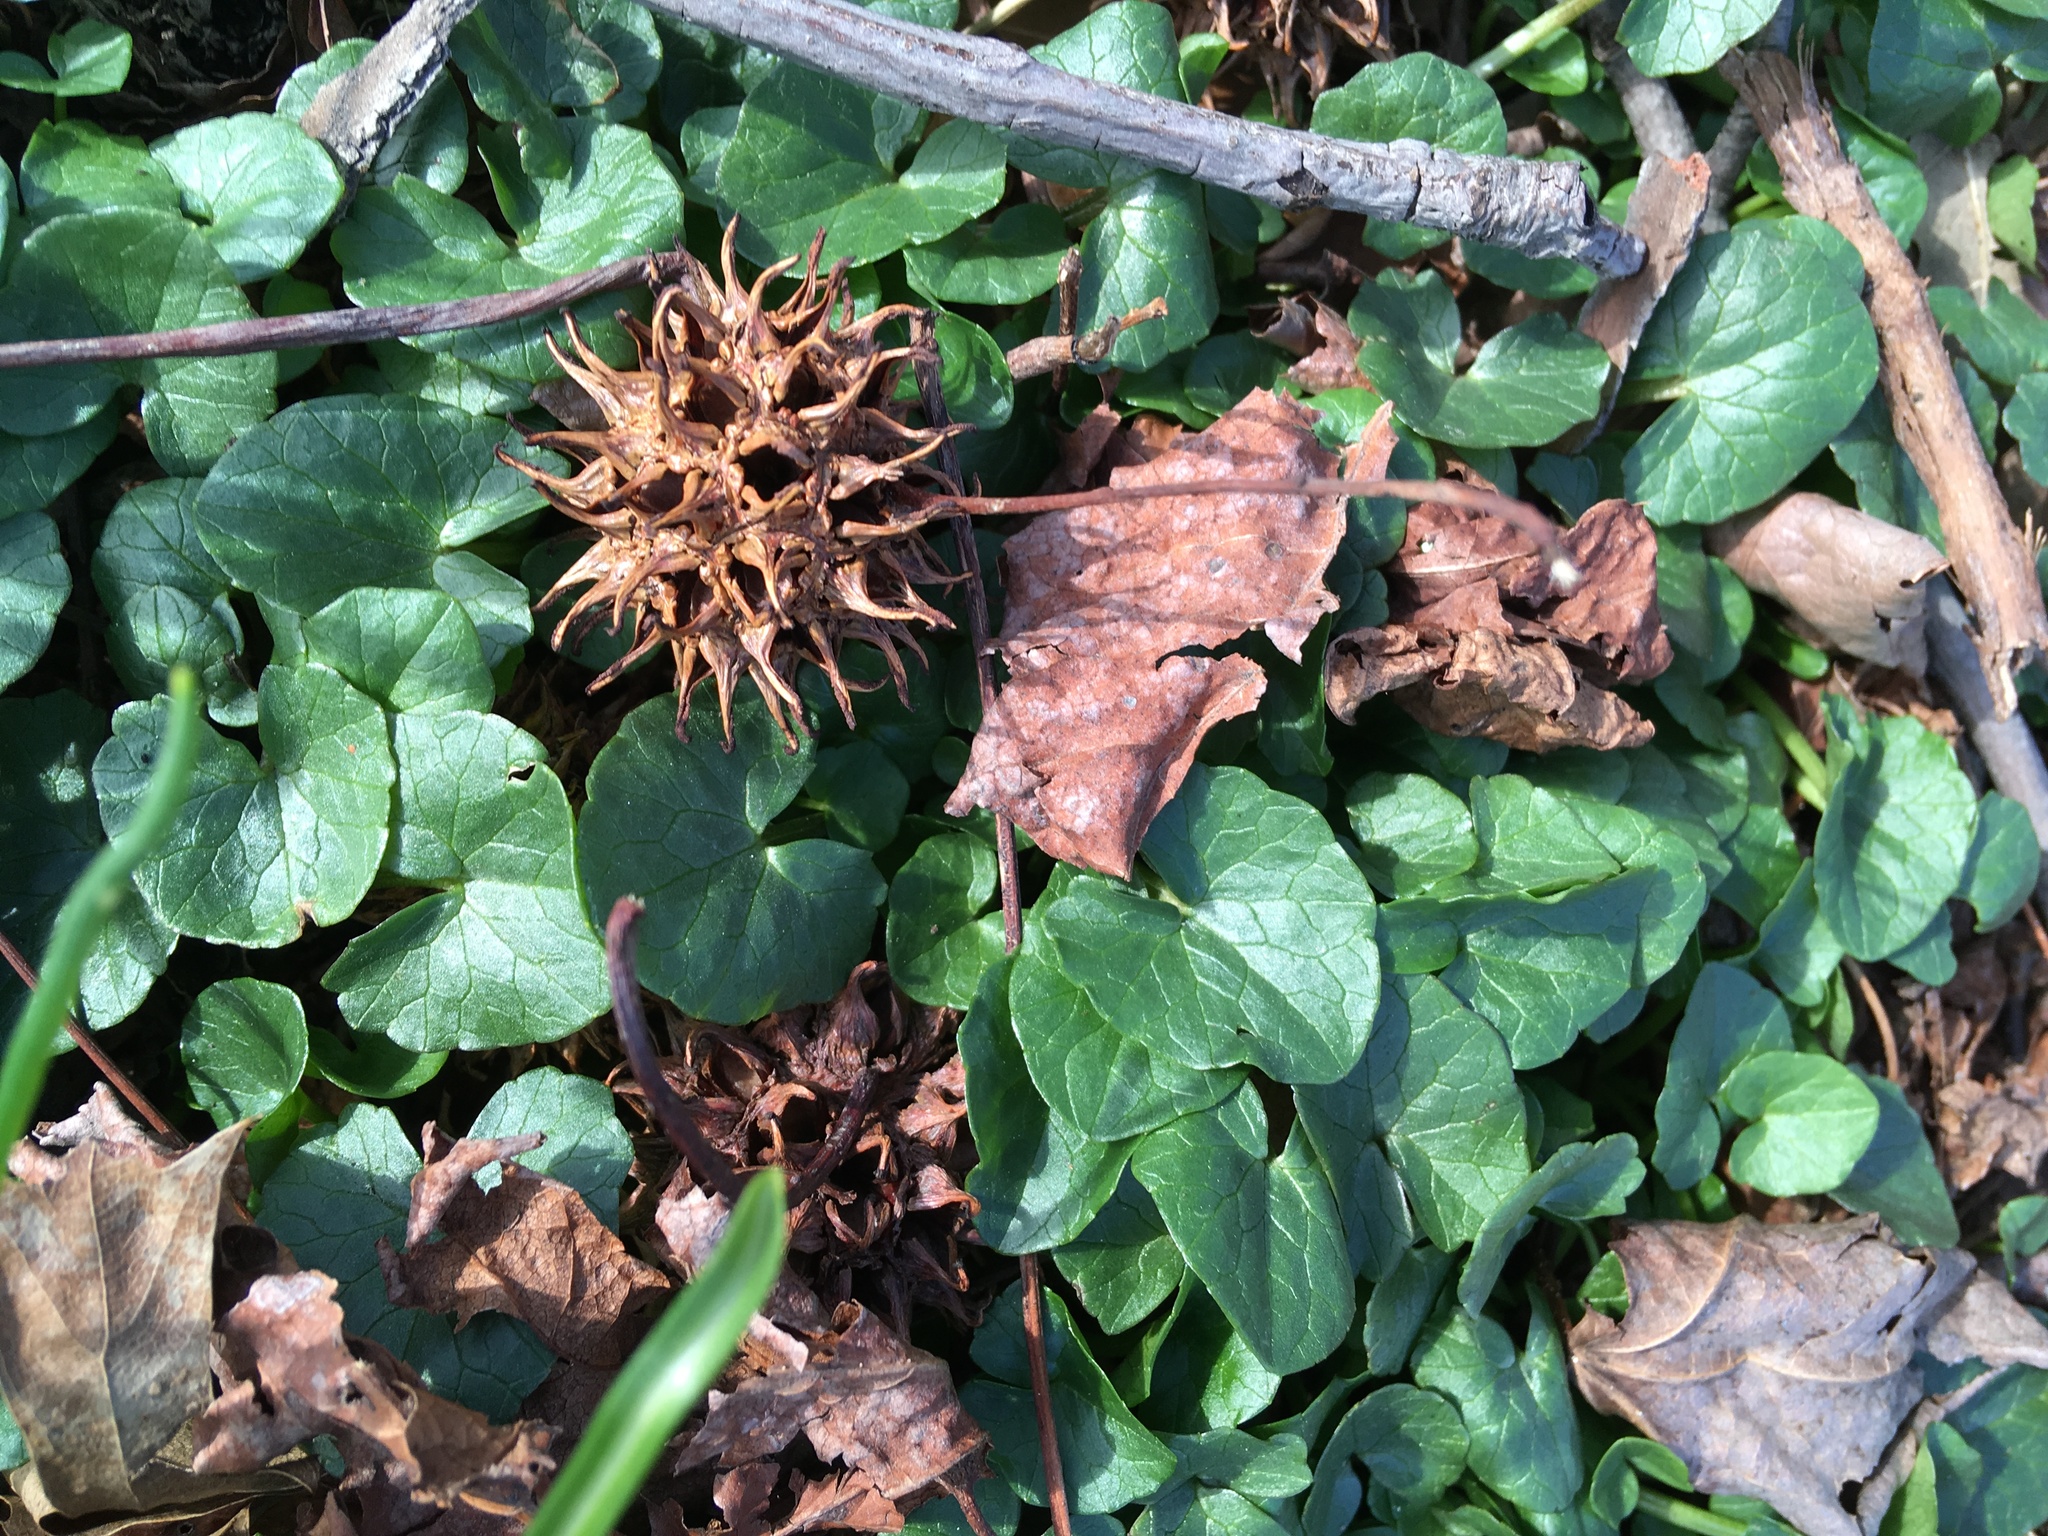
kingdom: Plantae
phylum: Tracheophyta
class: Magnoliopsida
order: Ranunculales
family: Ranunculaceae
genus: Ficaria
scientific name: Ficaria verna
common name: Lesser celandine
